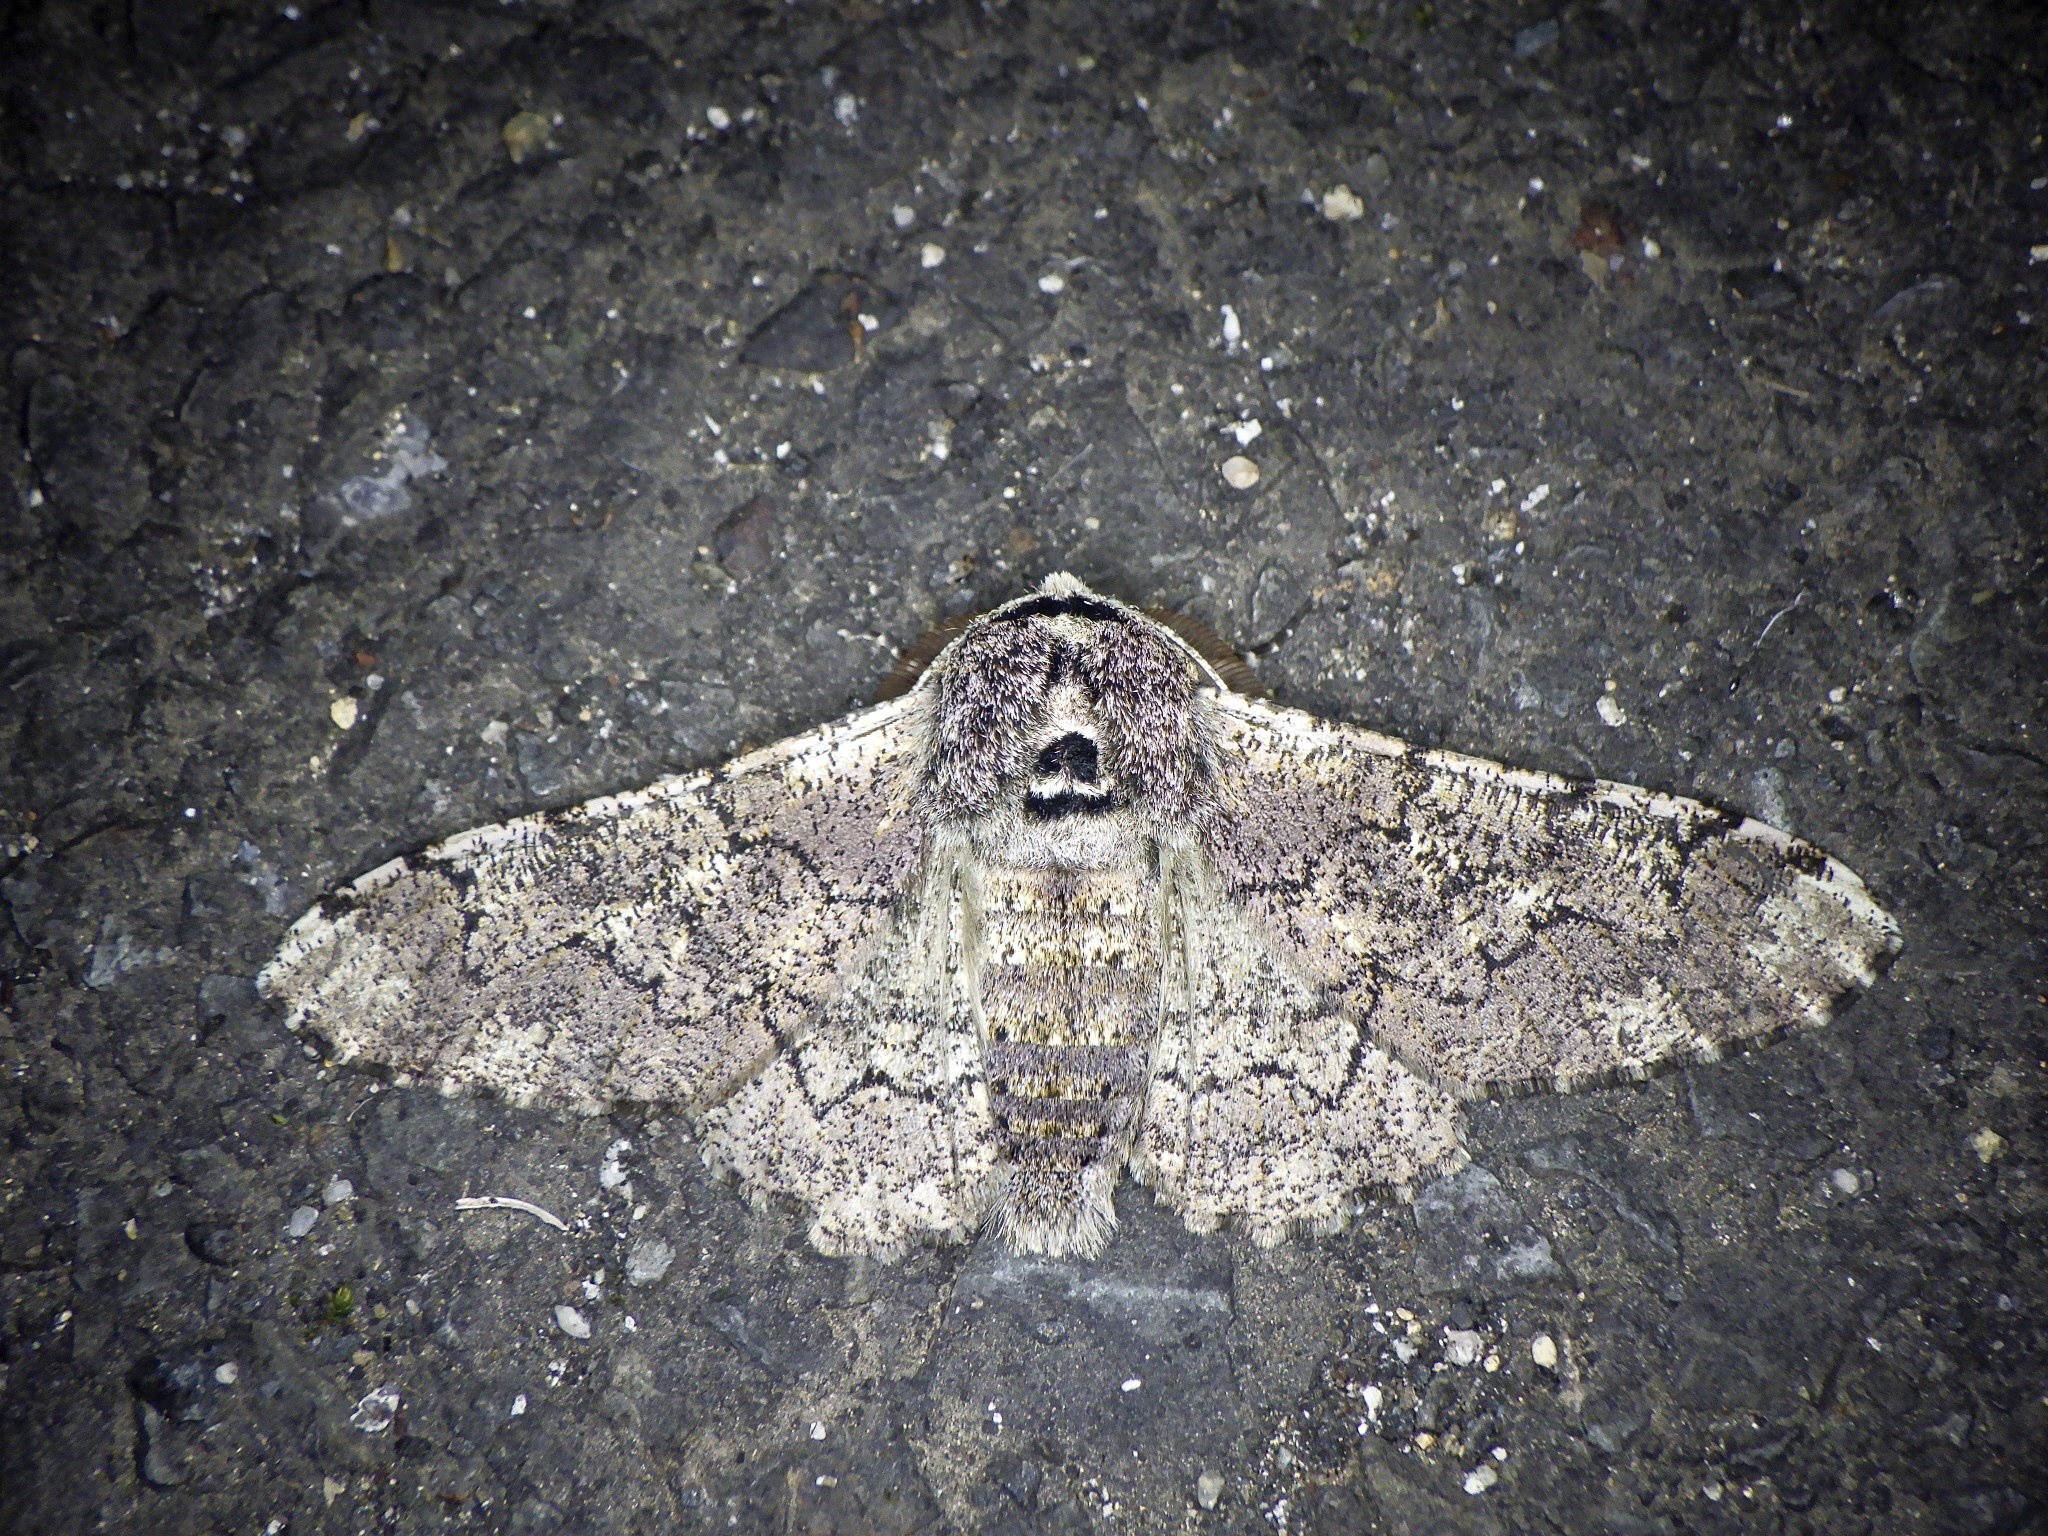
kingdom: Animalia
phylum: Arthropoda
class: Insecta
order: Lepidoptera
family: Geometridae
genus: Biston
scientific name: Biston robustum
